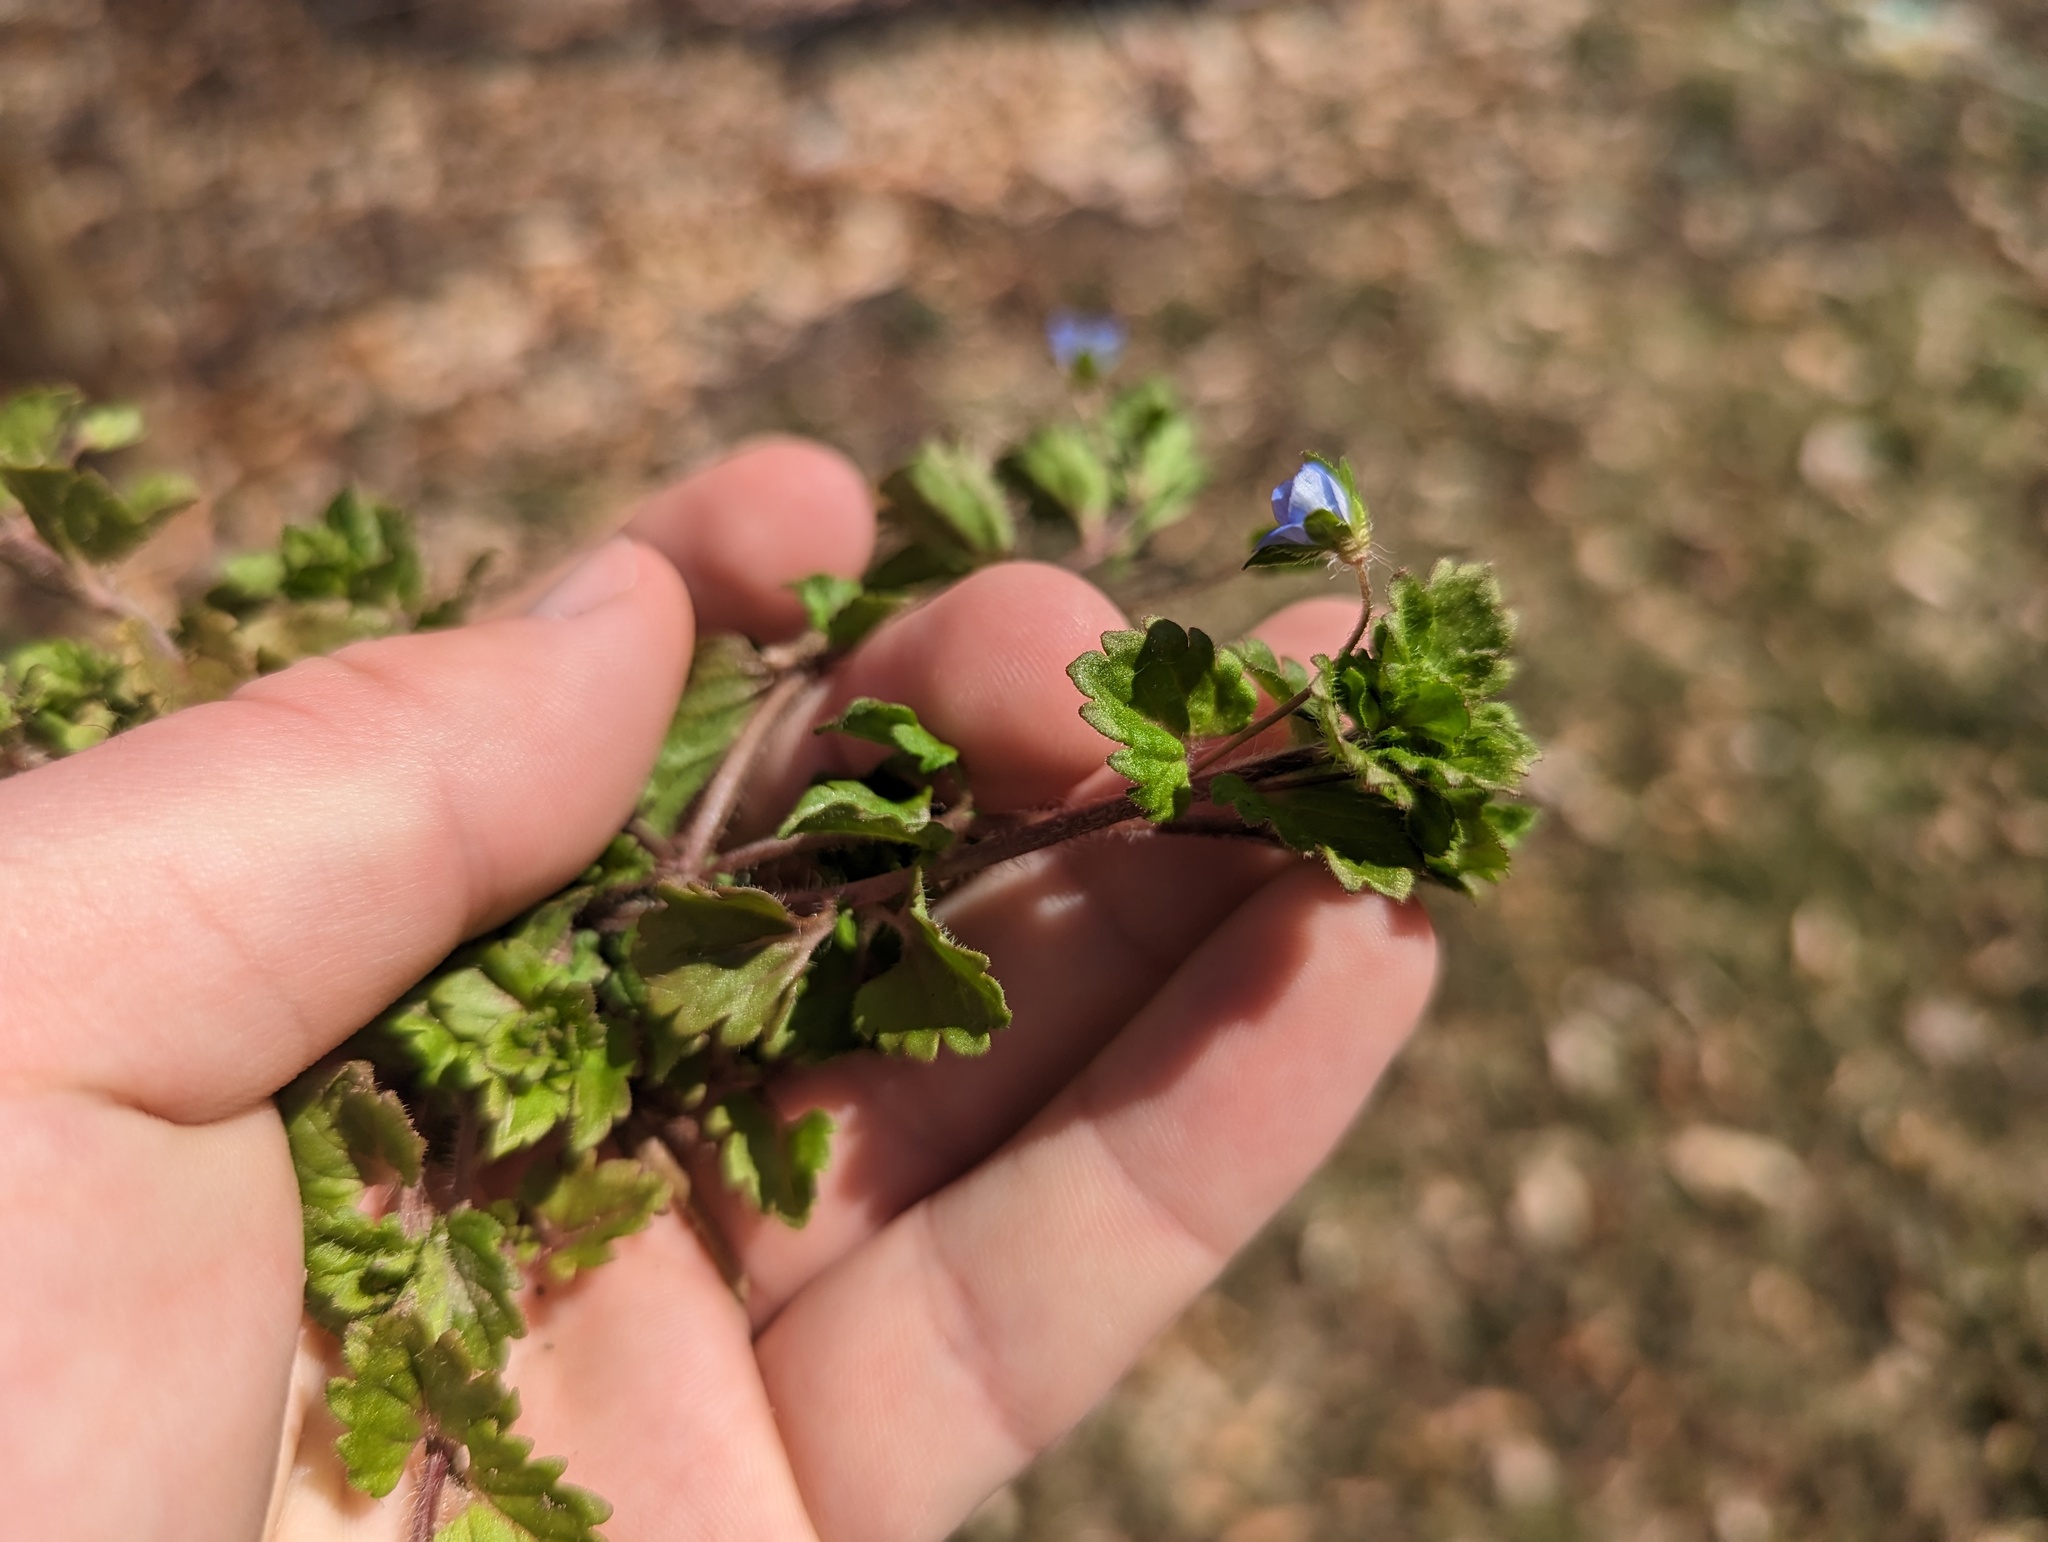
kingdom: Plantae
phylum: Tracheophyta
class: Magnoliopsida
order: Lamiales
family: Plantaginaceae
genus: Veronica
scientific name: Veronica persica
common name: Common field-speedwell
